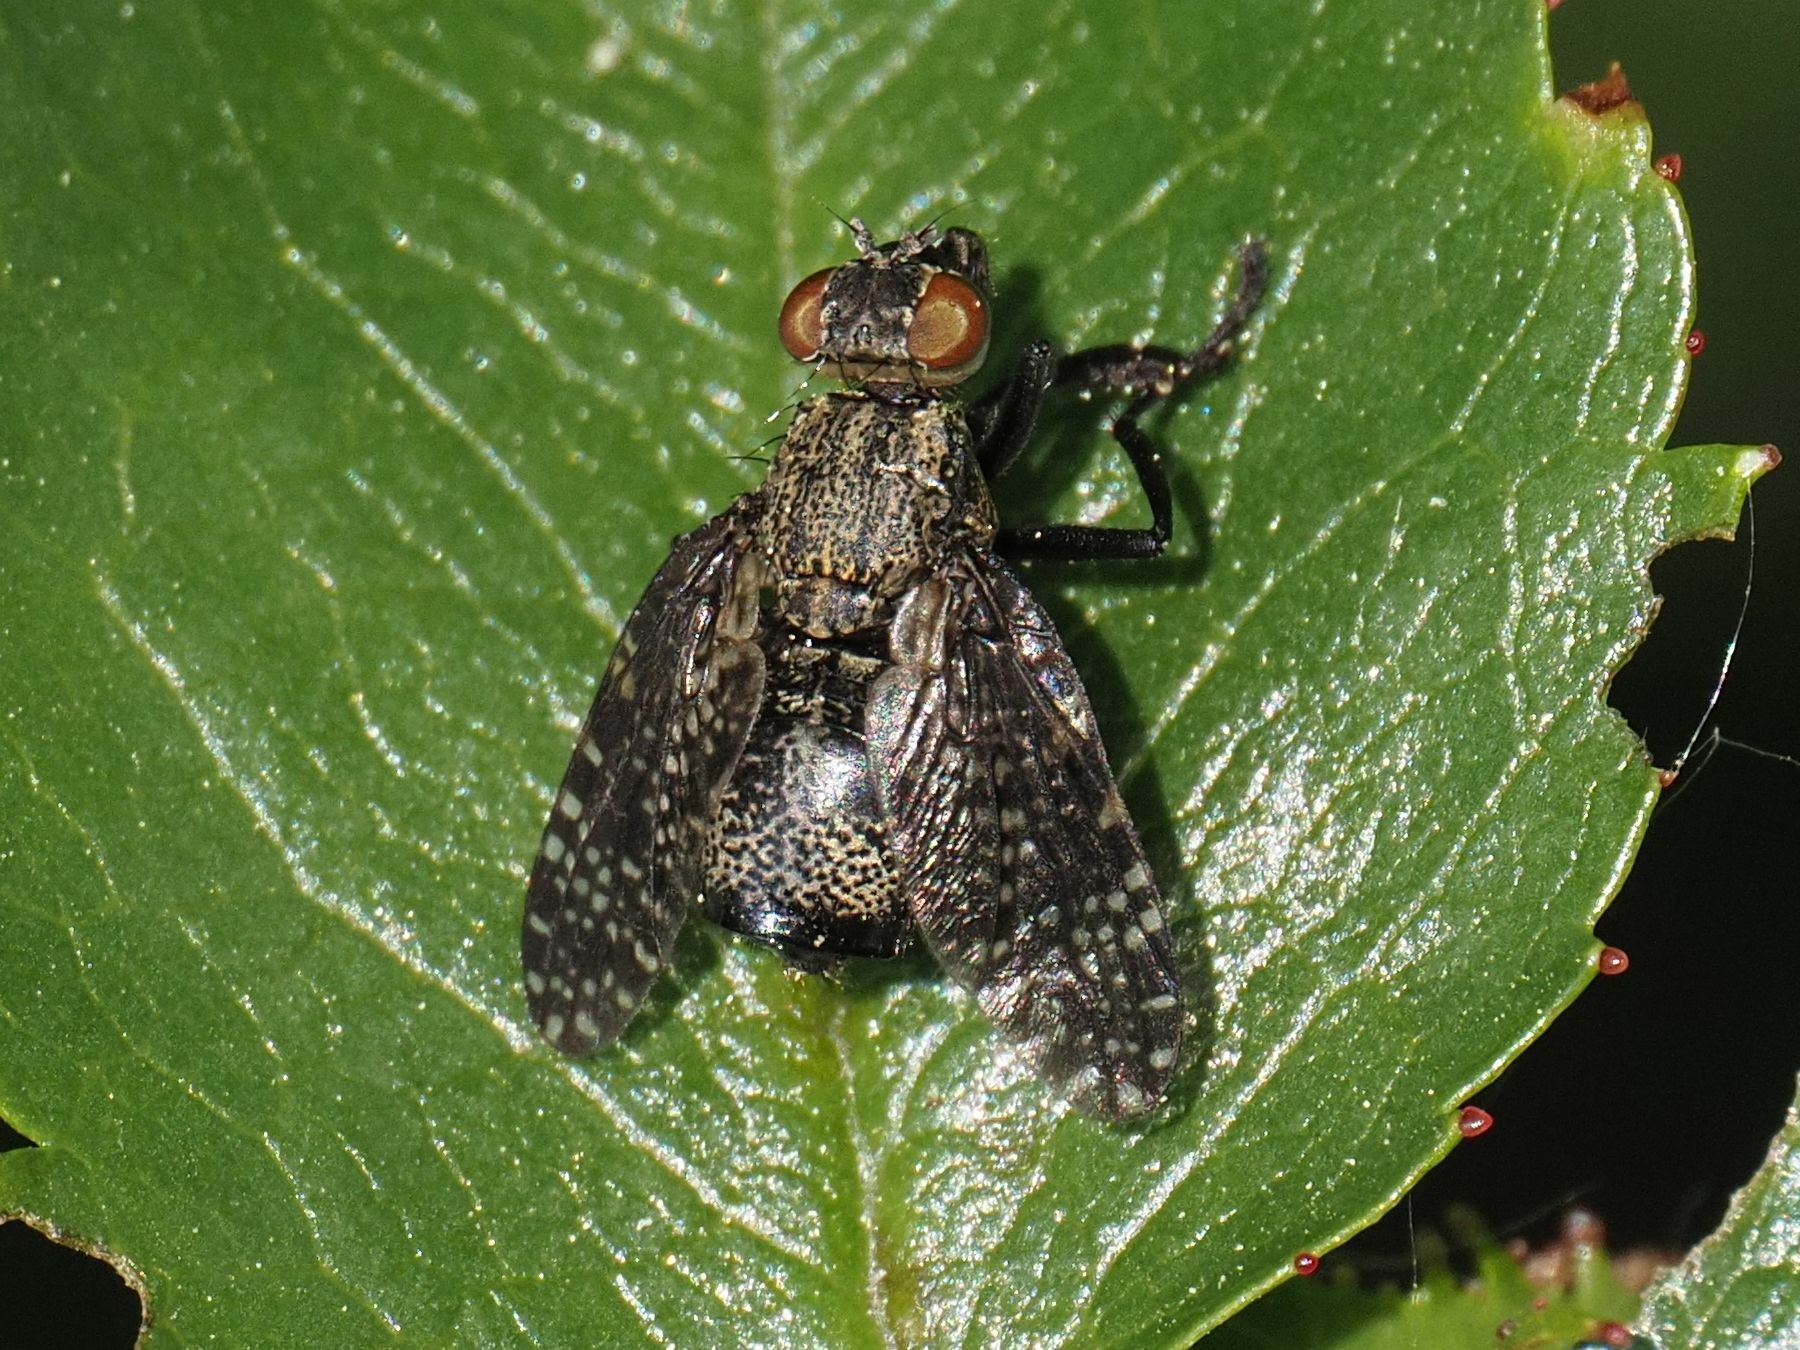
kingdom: Animalia
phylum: Arthropoda
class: Insecta
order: Diptera
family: Platystomatidae
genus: Platystoma
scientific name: Platystoma seminationis
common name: Fly
